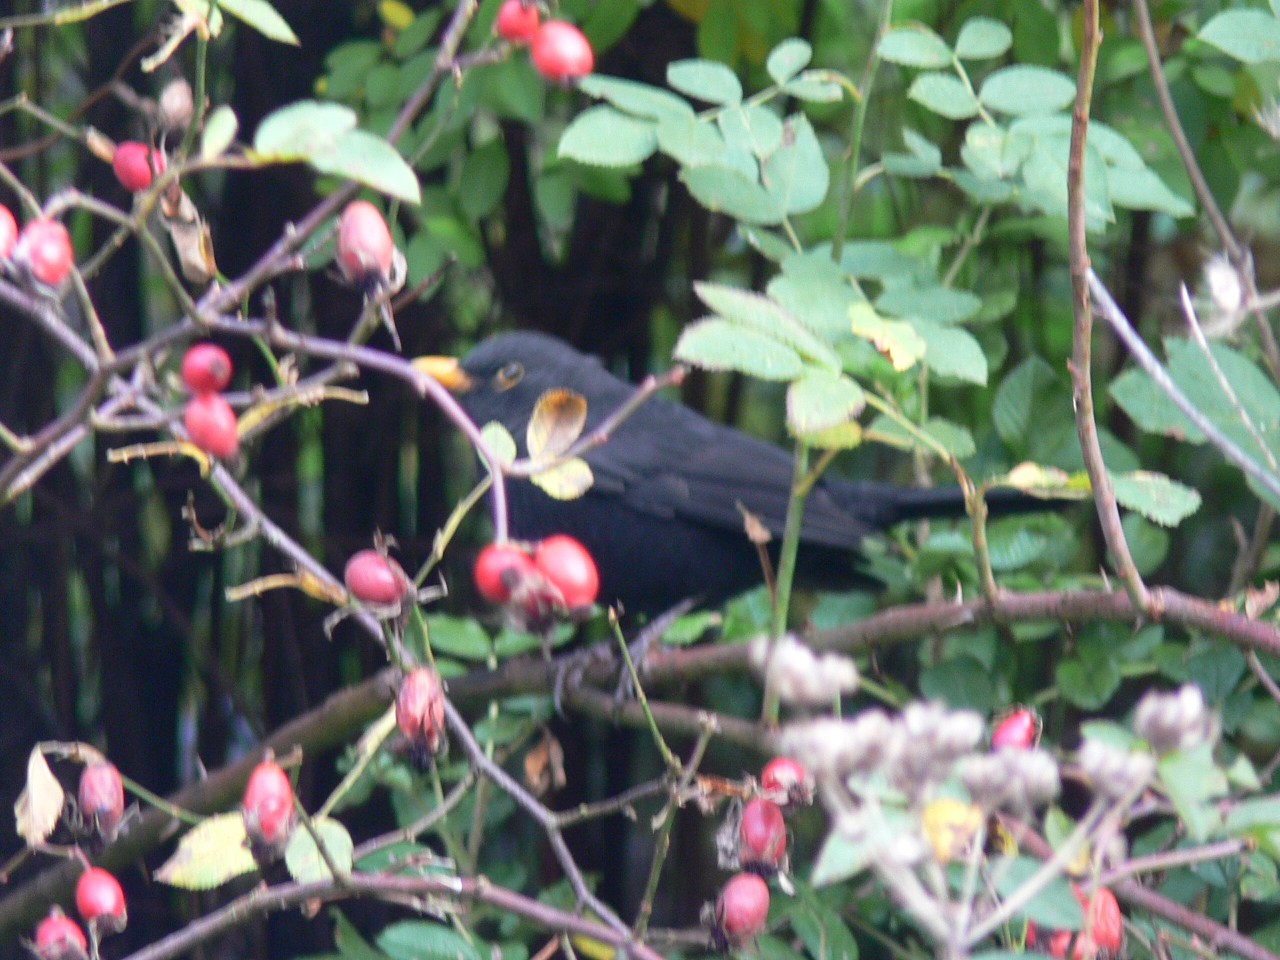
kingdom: Animalia
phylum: Chordata
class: Aves
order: Passeriformes
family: Turdidae
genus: Turdus
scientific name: Turdus merula
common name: Common blackbird
